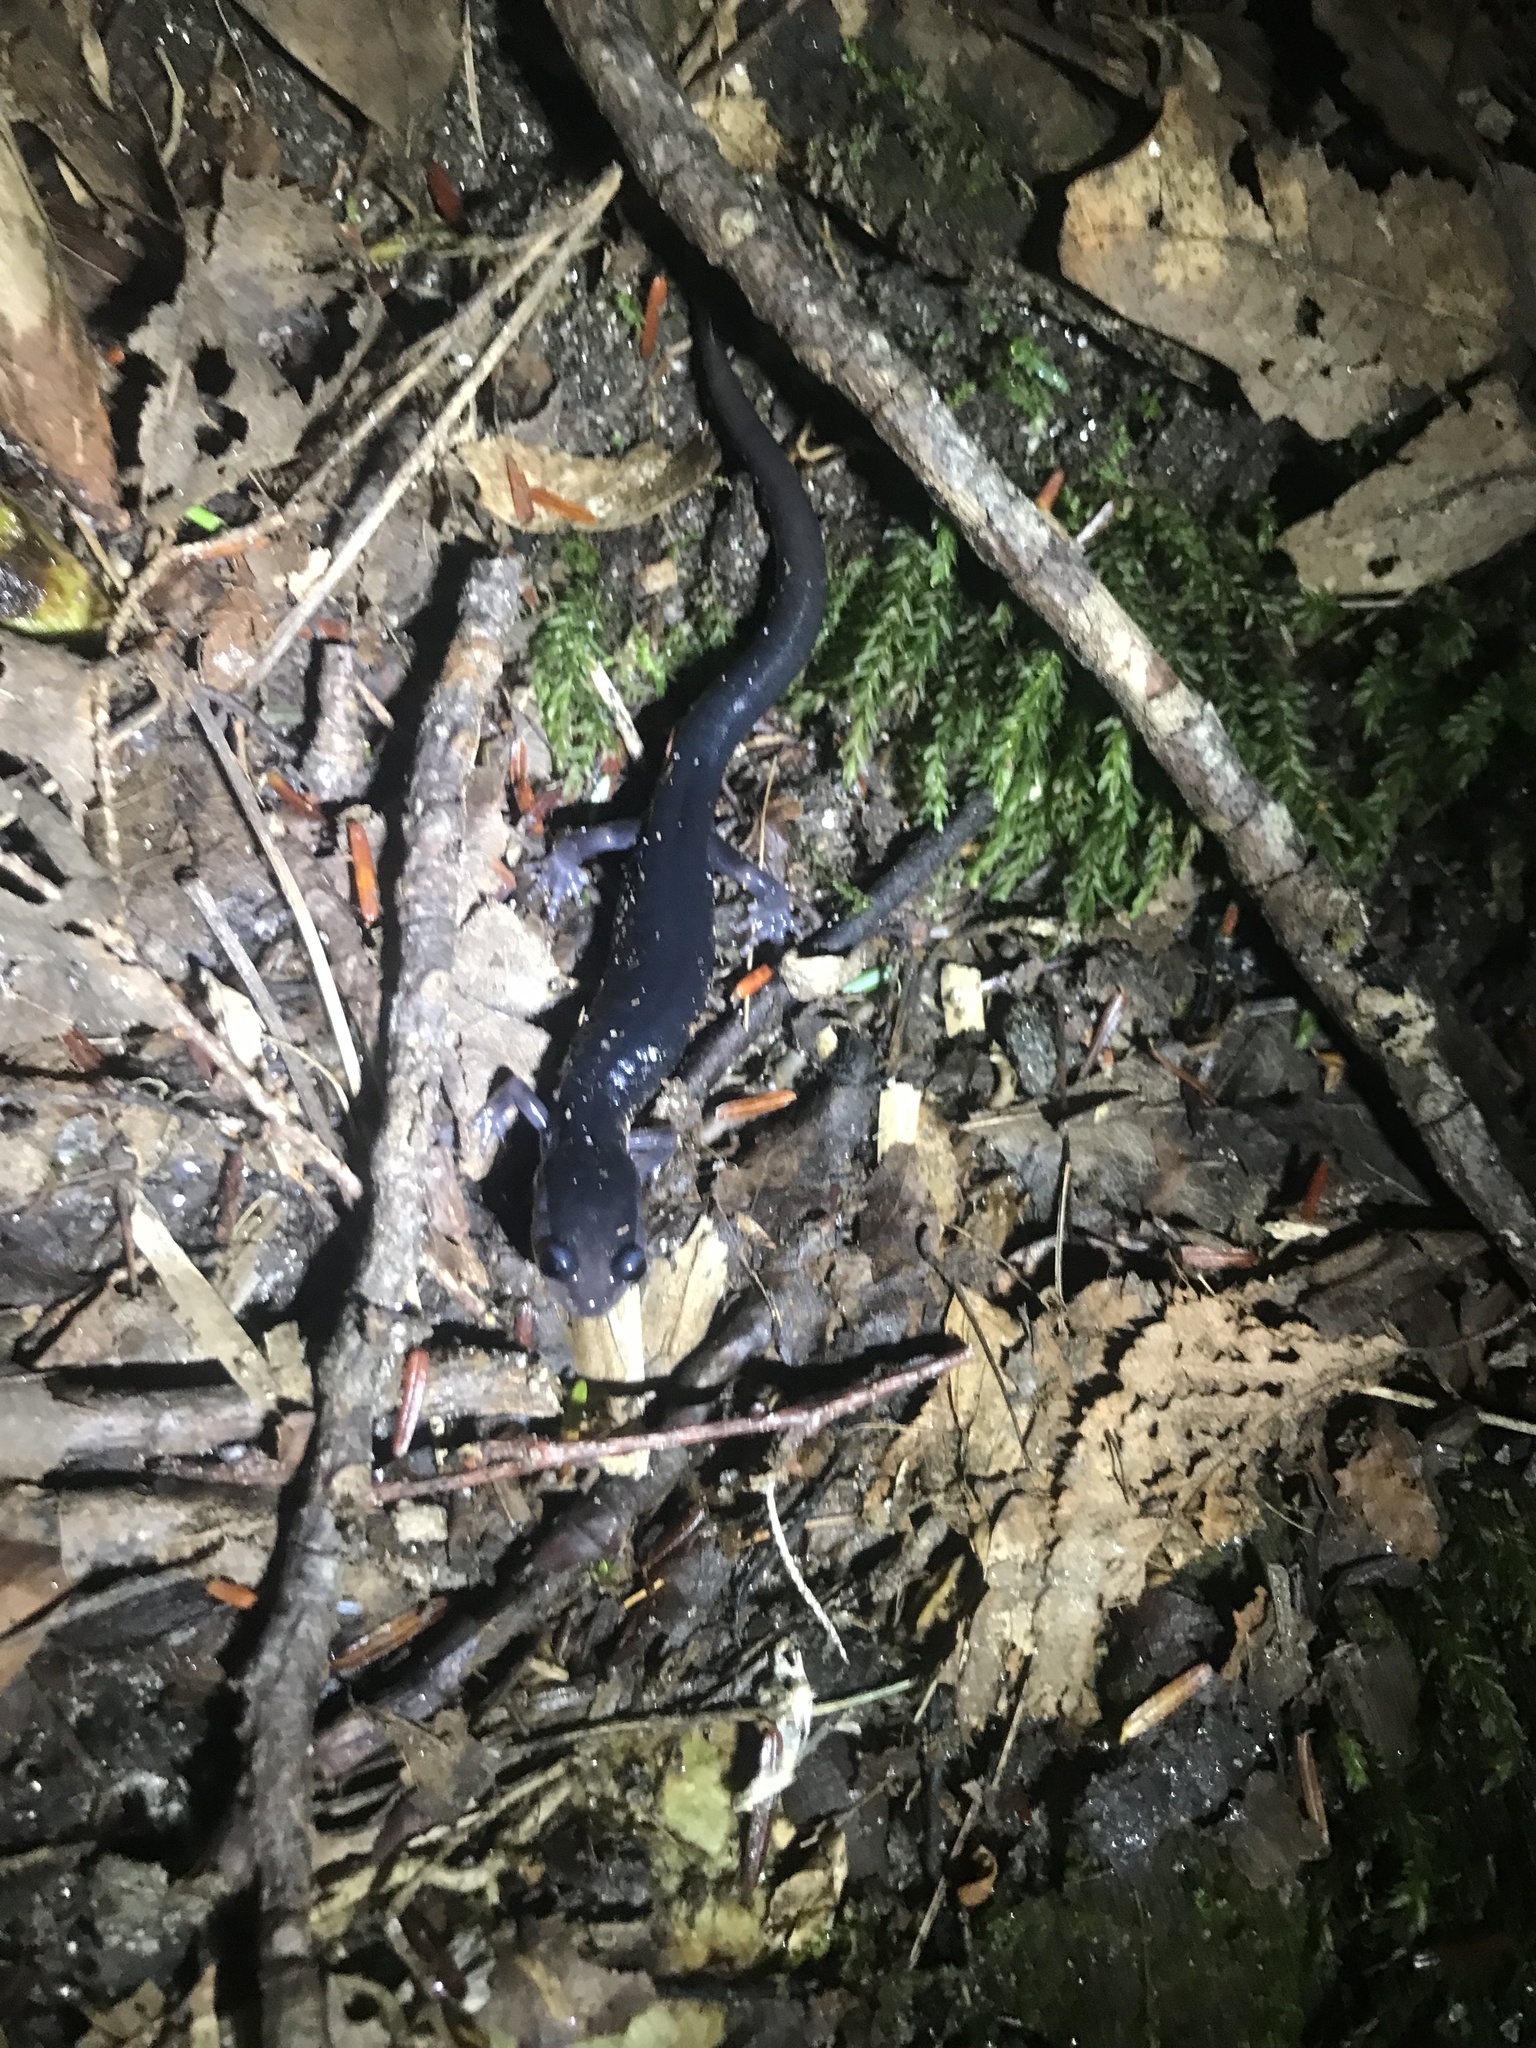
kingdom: Animalia
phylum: Chordata
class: Amphibia
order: Caudata
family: Plethodontidae
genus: Plethodon
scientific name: Plethodon metcalfi
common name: Southern gray-cheeked salamander
